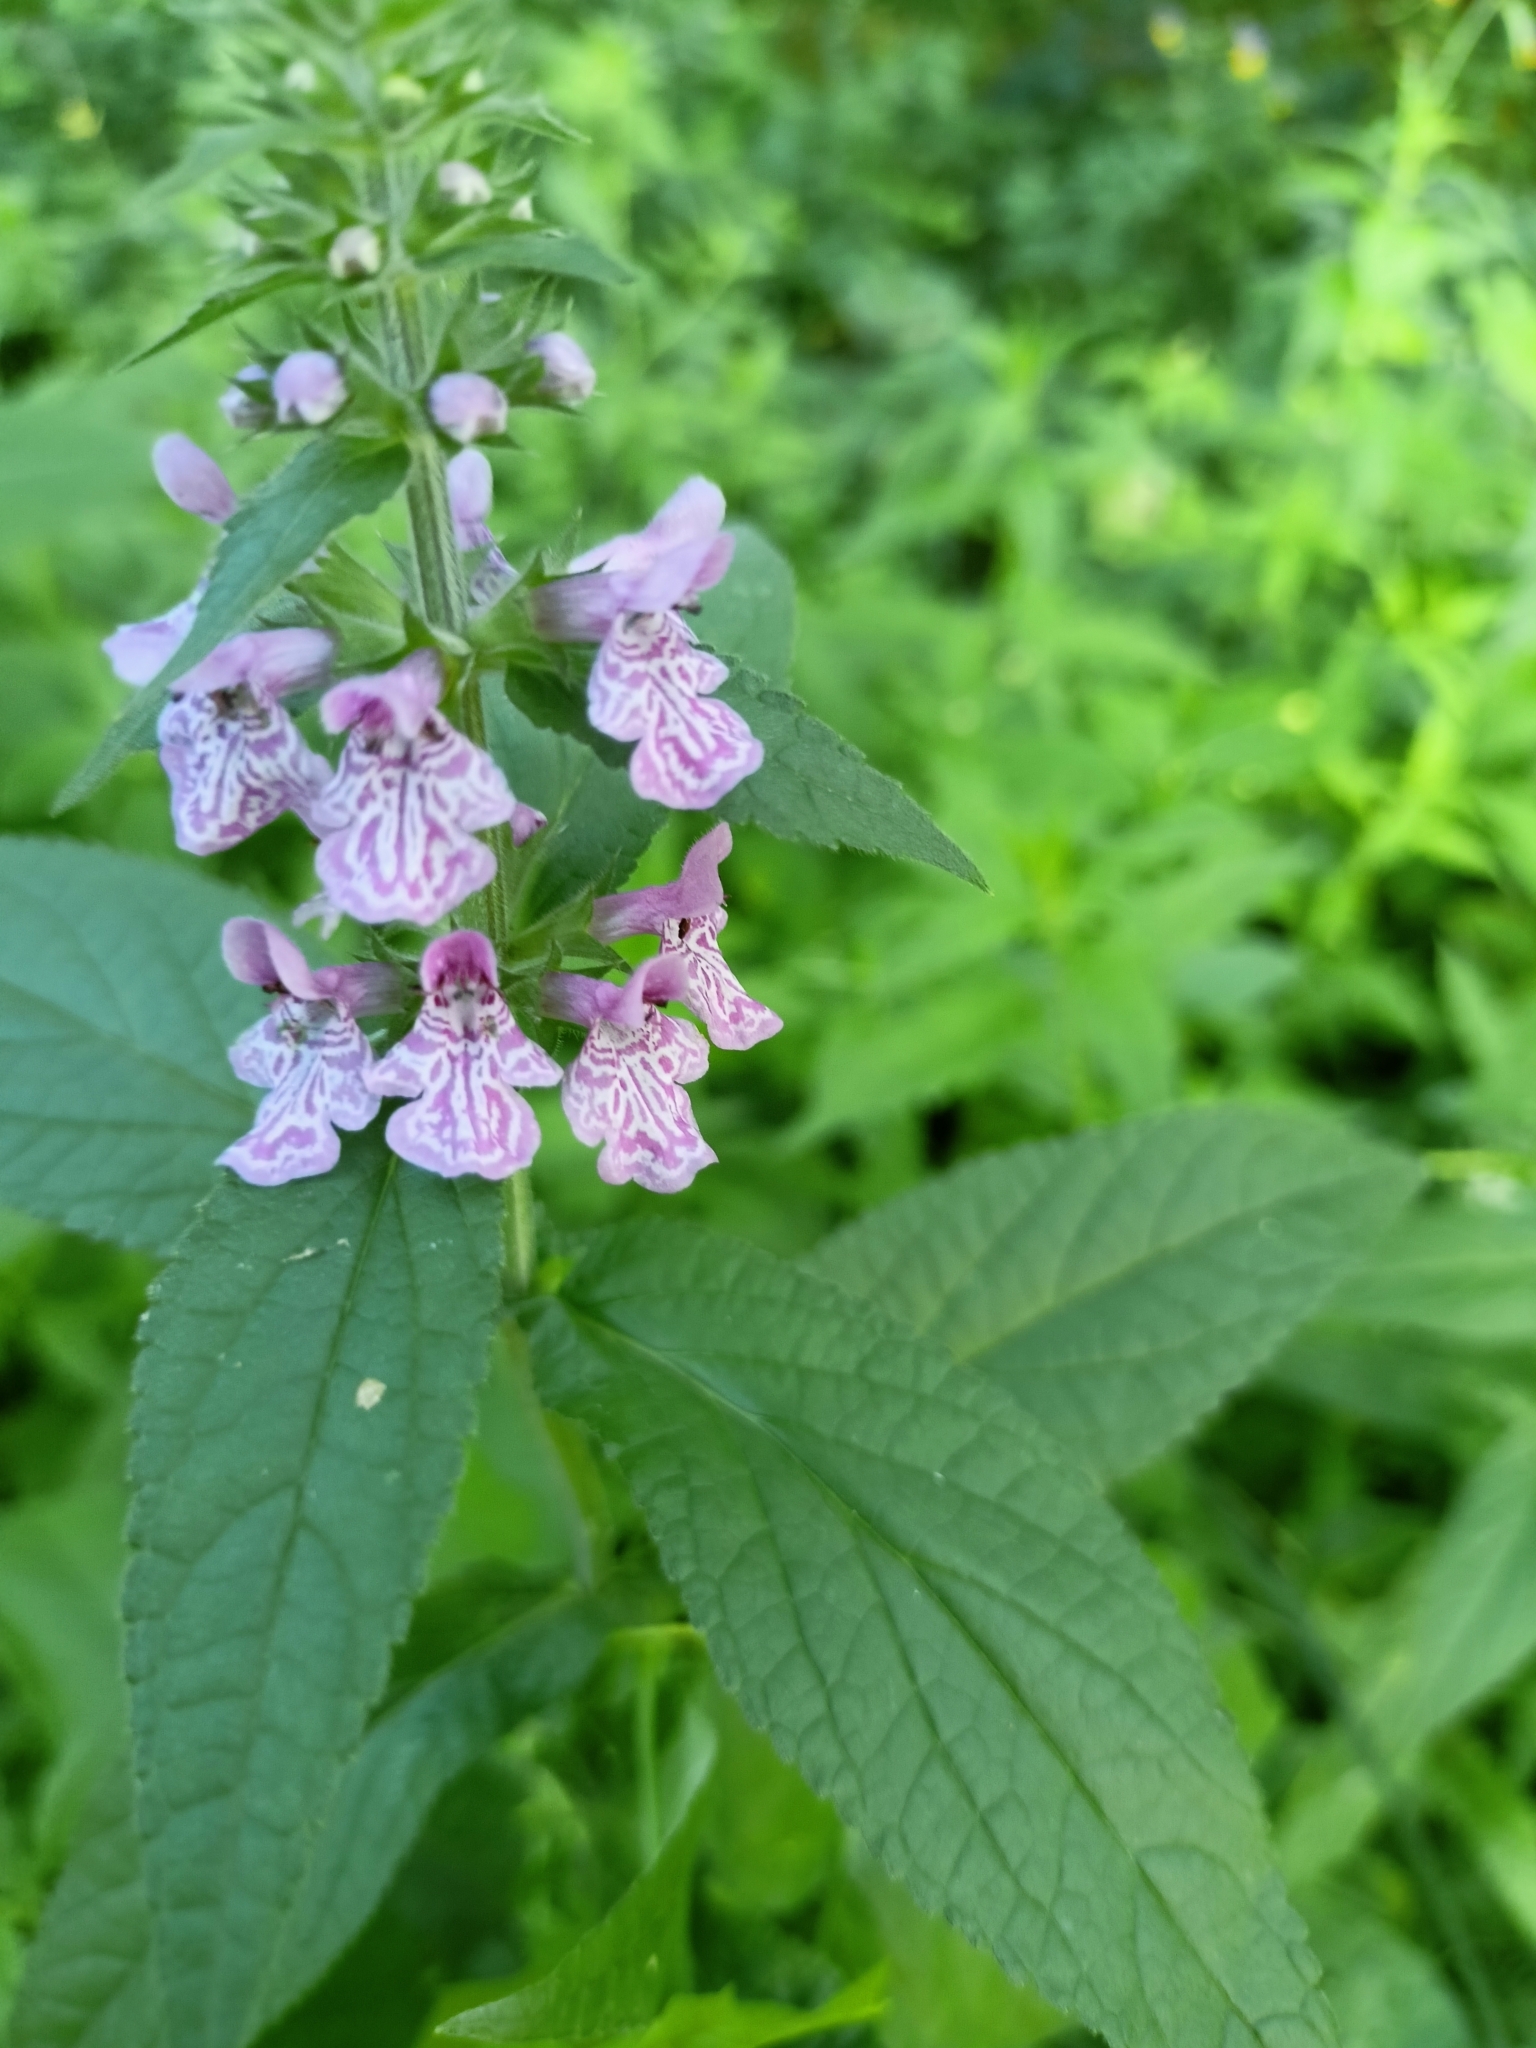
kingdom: Plantae
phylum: Tracheophyta
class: Magnoliopsida
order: Lamiales
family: Lamiaceae
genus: Stachys
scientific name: Stachys palustris
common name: Marsh woundwort
